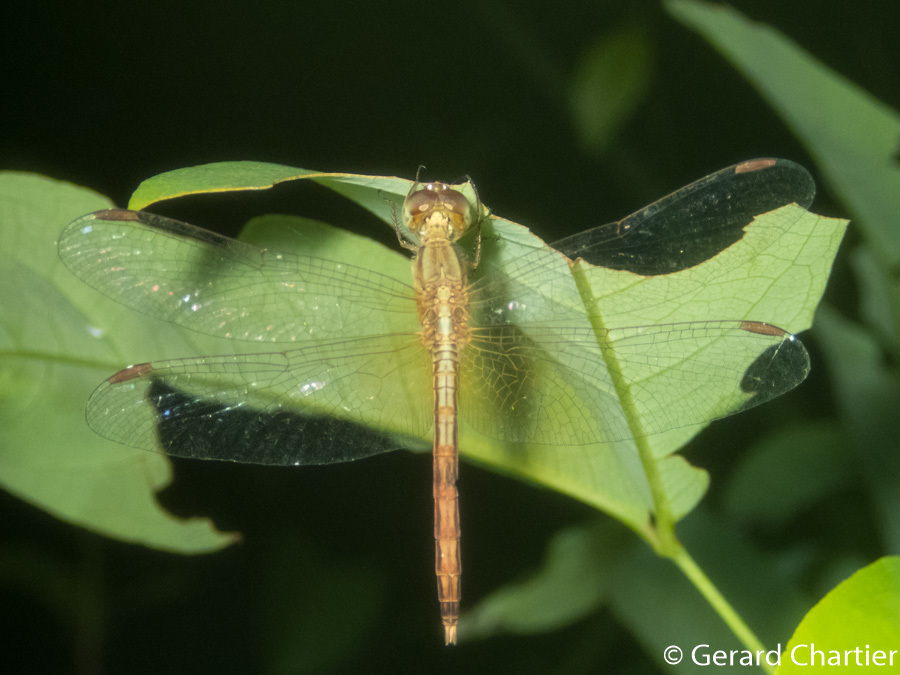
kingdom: Animalia
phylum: Arthropoda
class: Insecta
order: Odonata
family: Libellulidae
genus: Neurothemis
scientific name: Neurothemis intermedia
